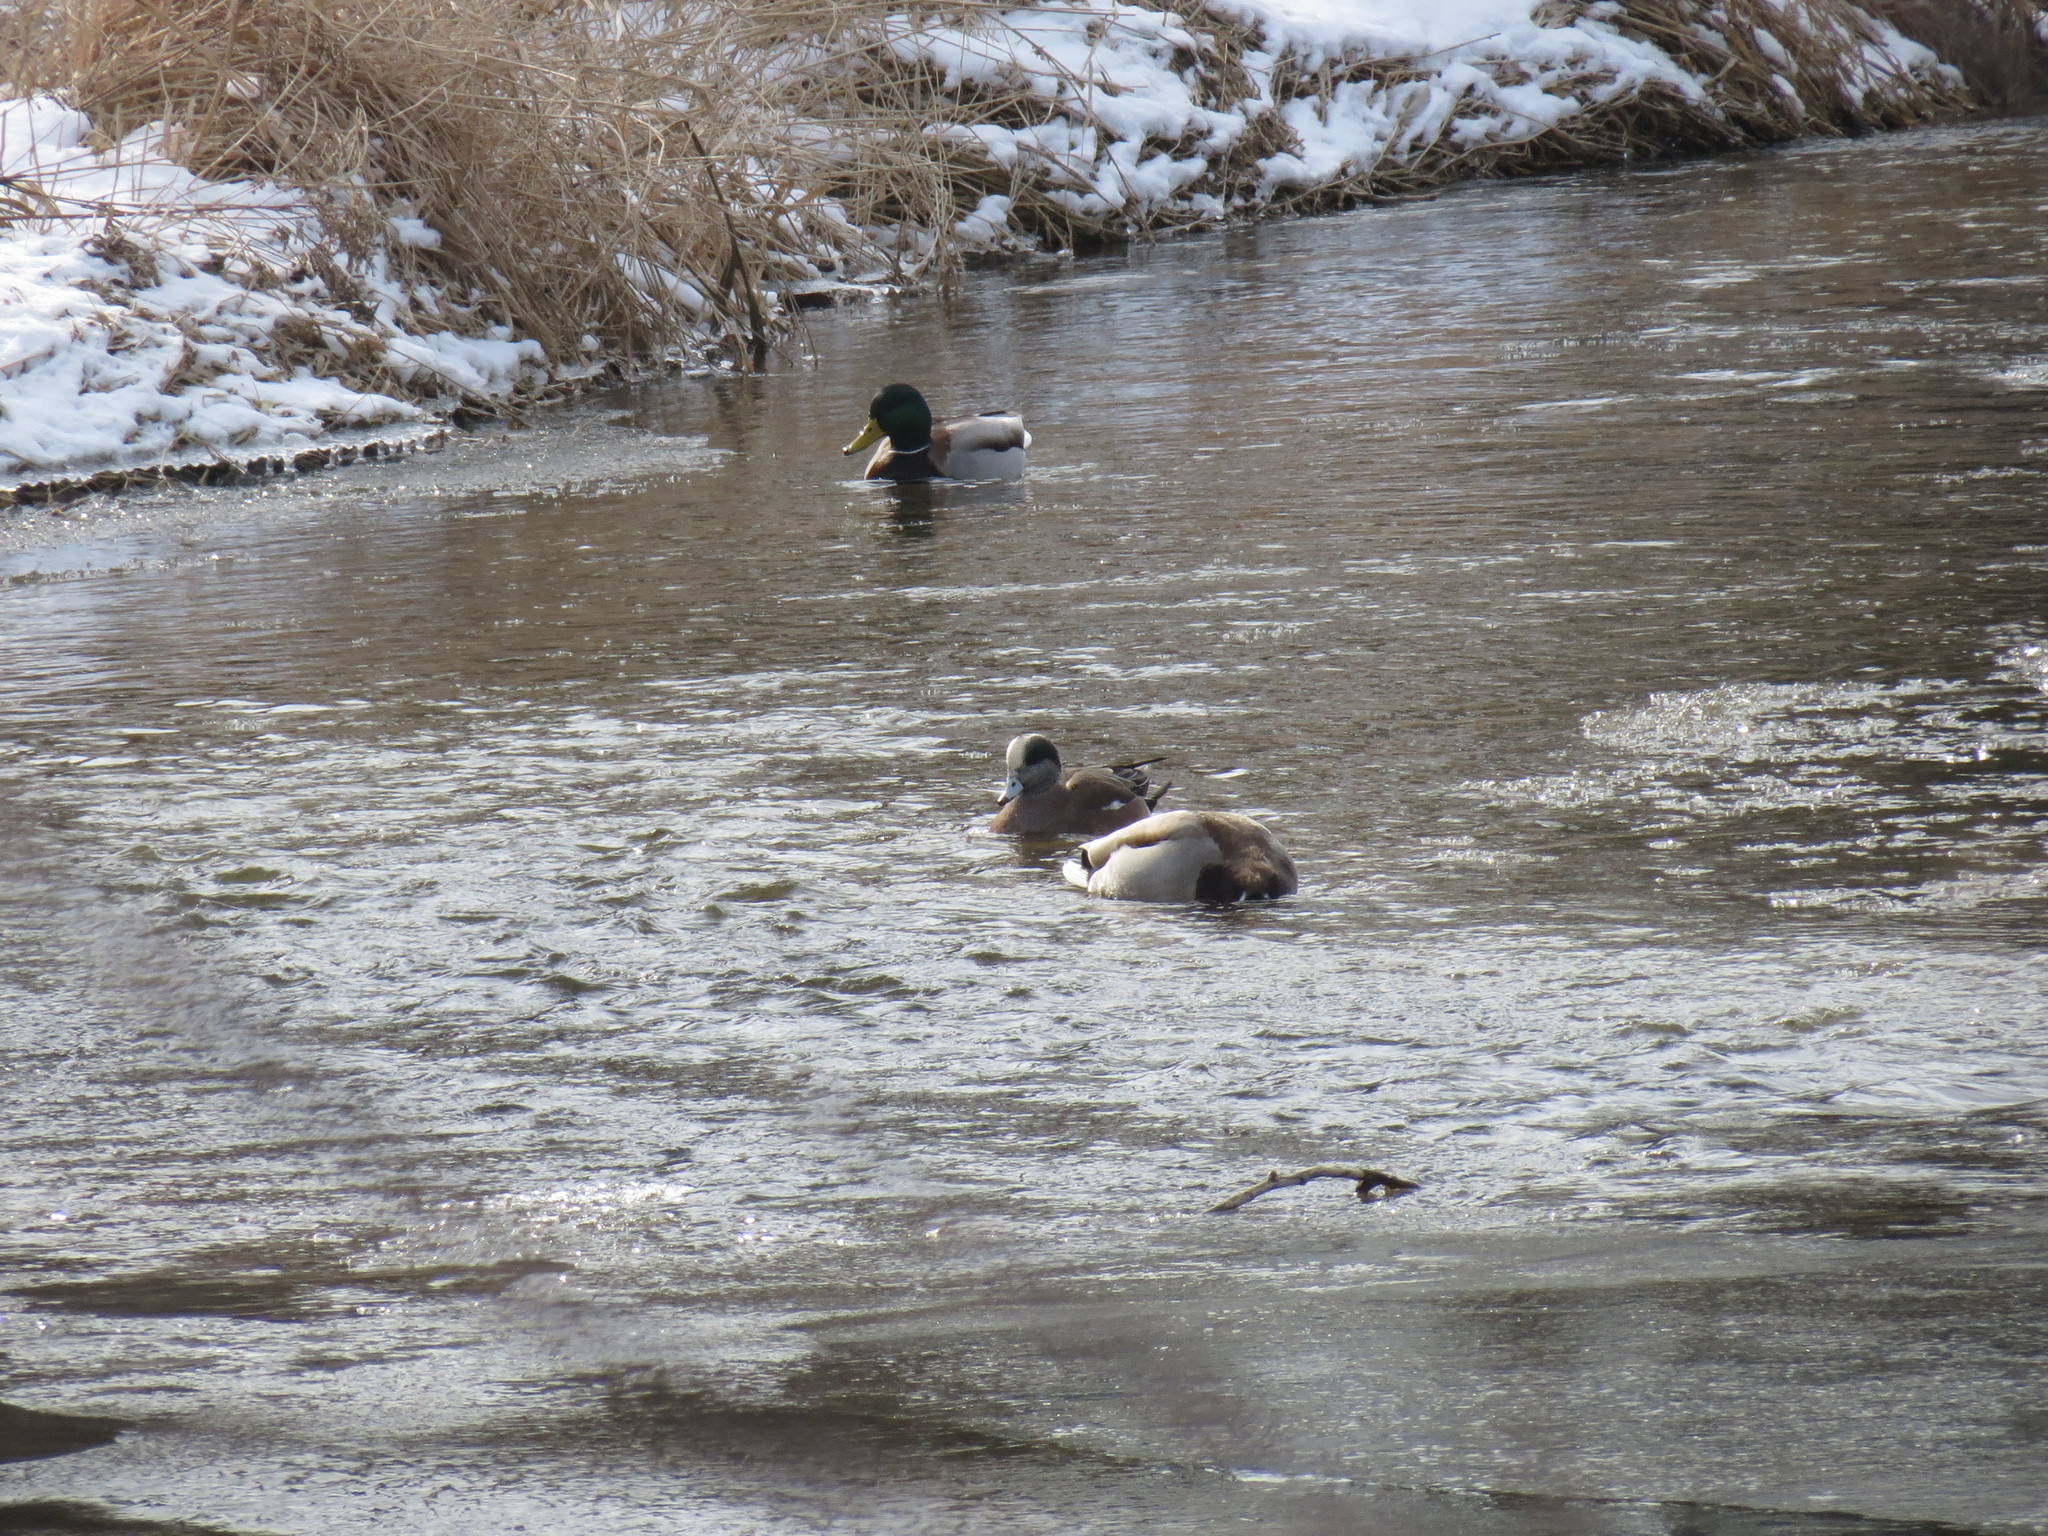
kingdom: Animalia
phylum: Chordata
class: Aves
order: Anseriformes
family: Anatidae
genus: Mareca
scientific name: Mareca americana
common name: American wigeon
